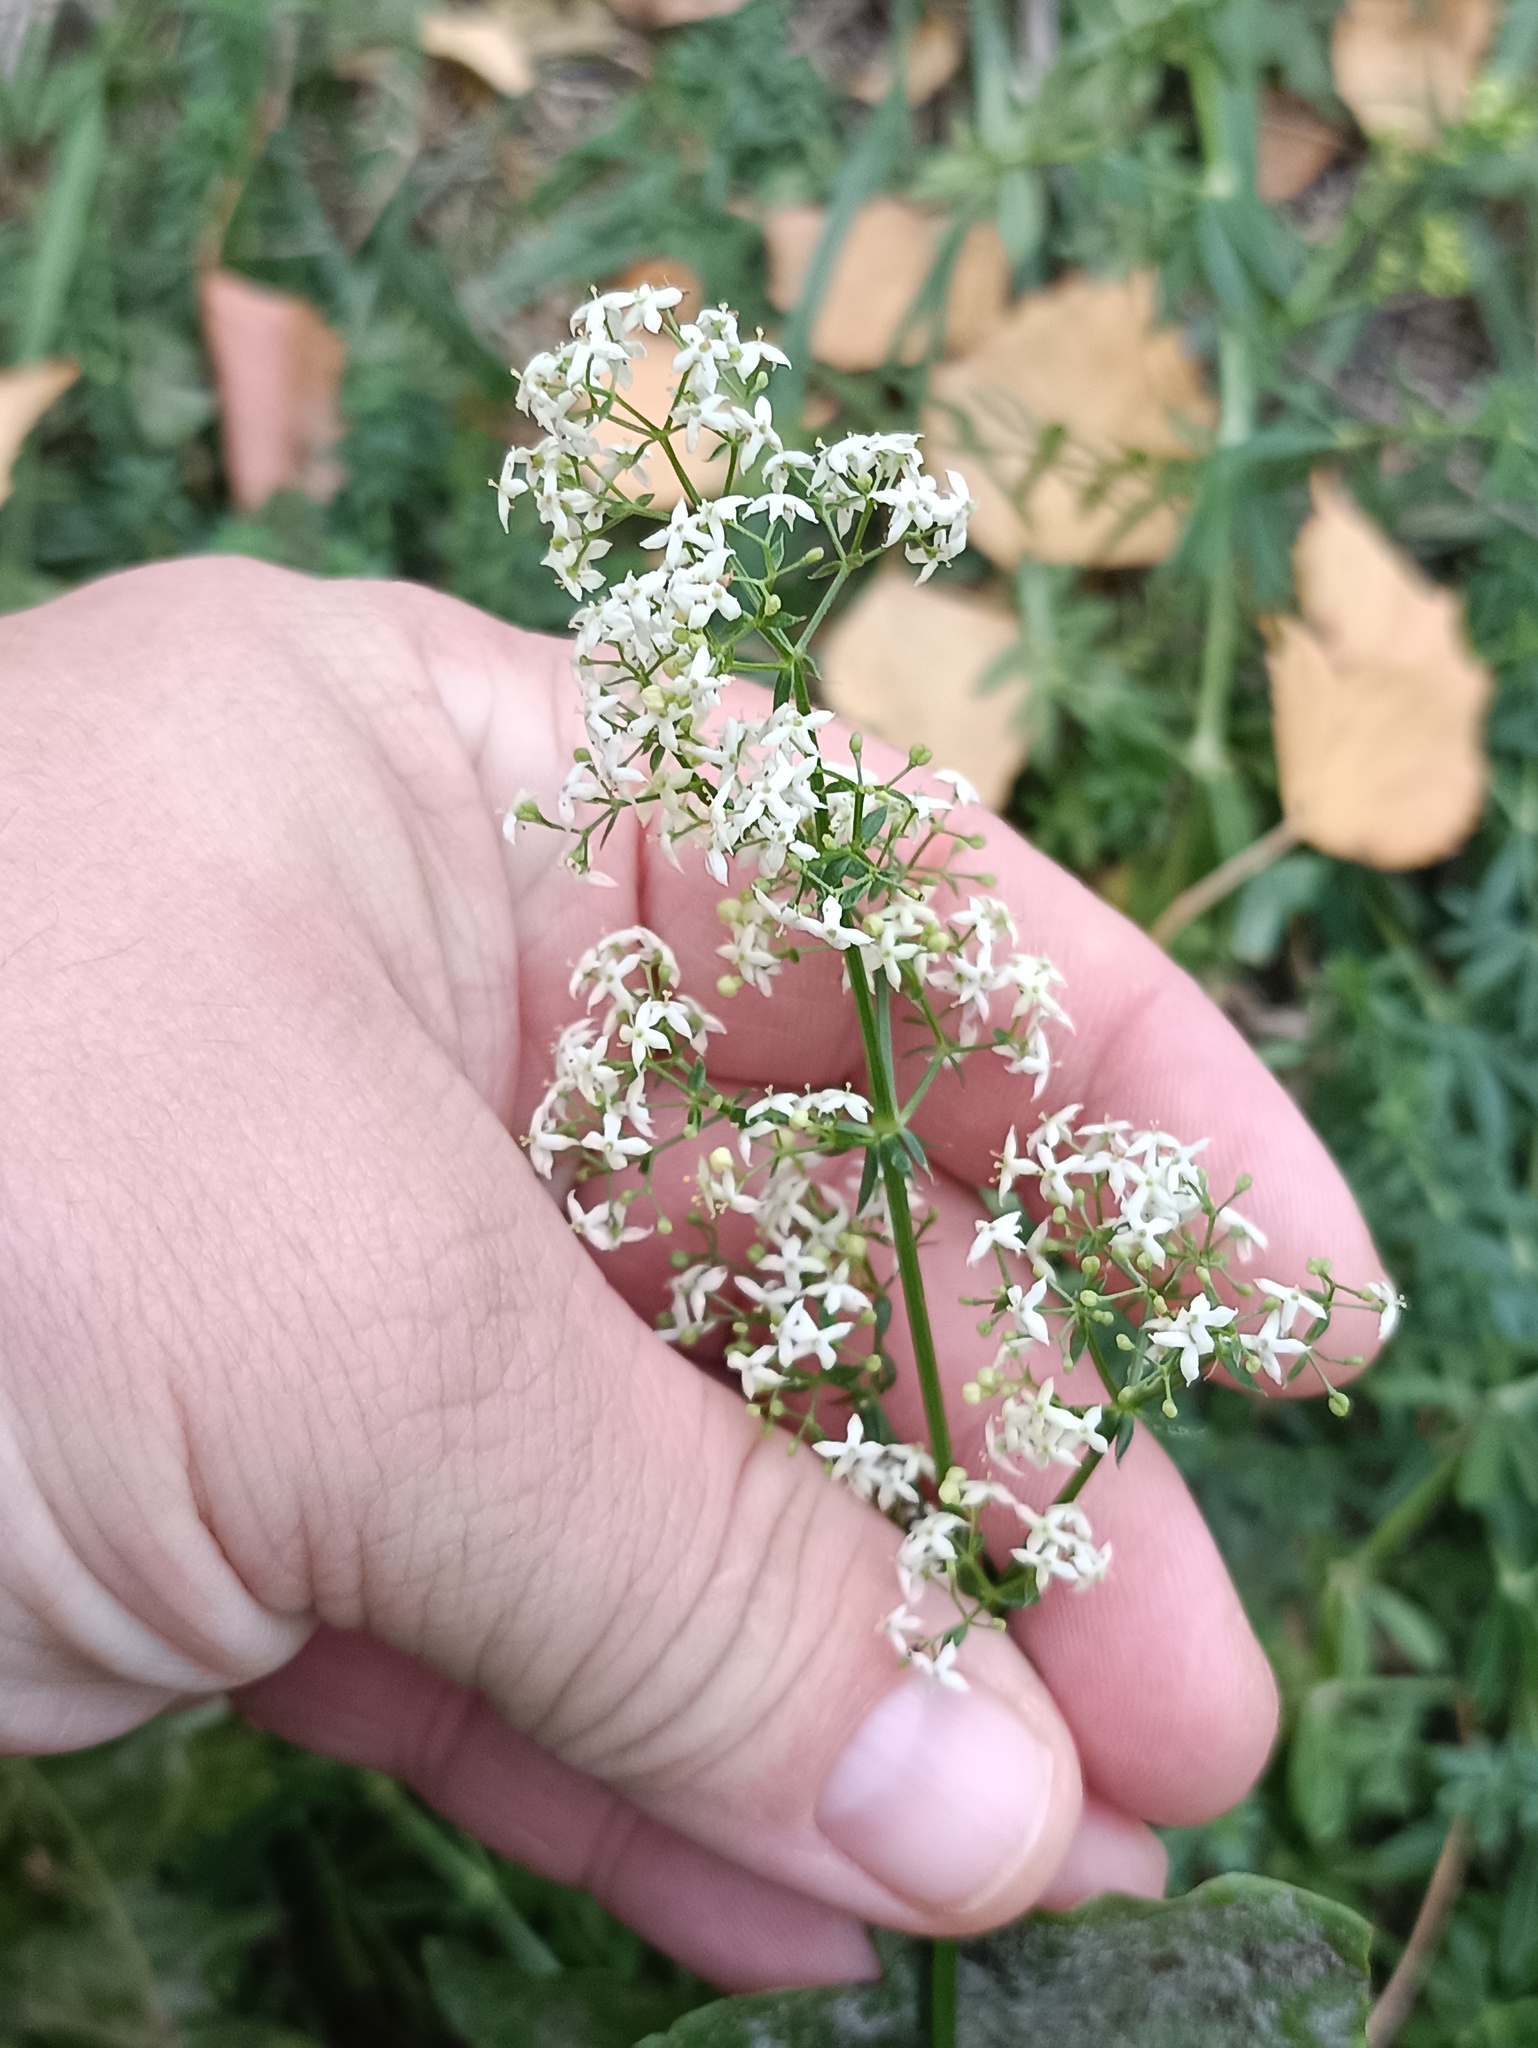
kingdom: Plantae
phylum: Tracheophyta
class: Magnoliopsida
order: Gentianales
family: Rubiaceae
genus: Galium
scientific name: Galium mollugo
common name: Hedge bedstraw
